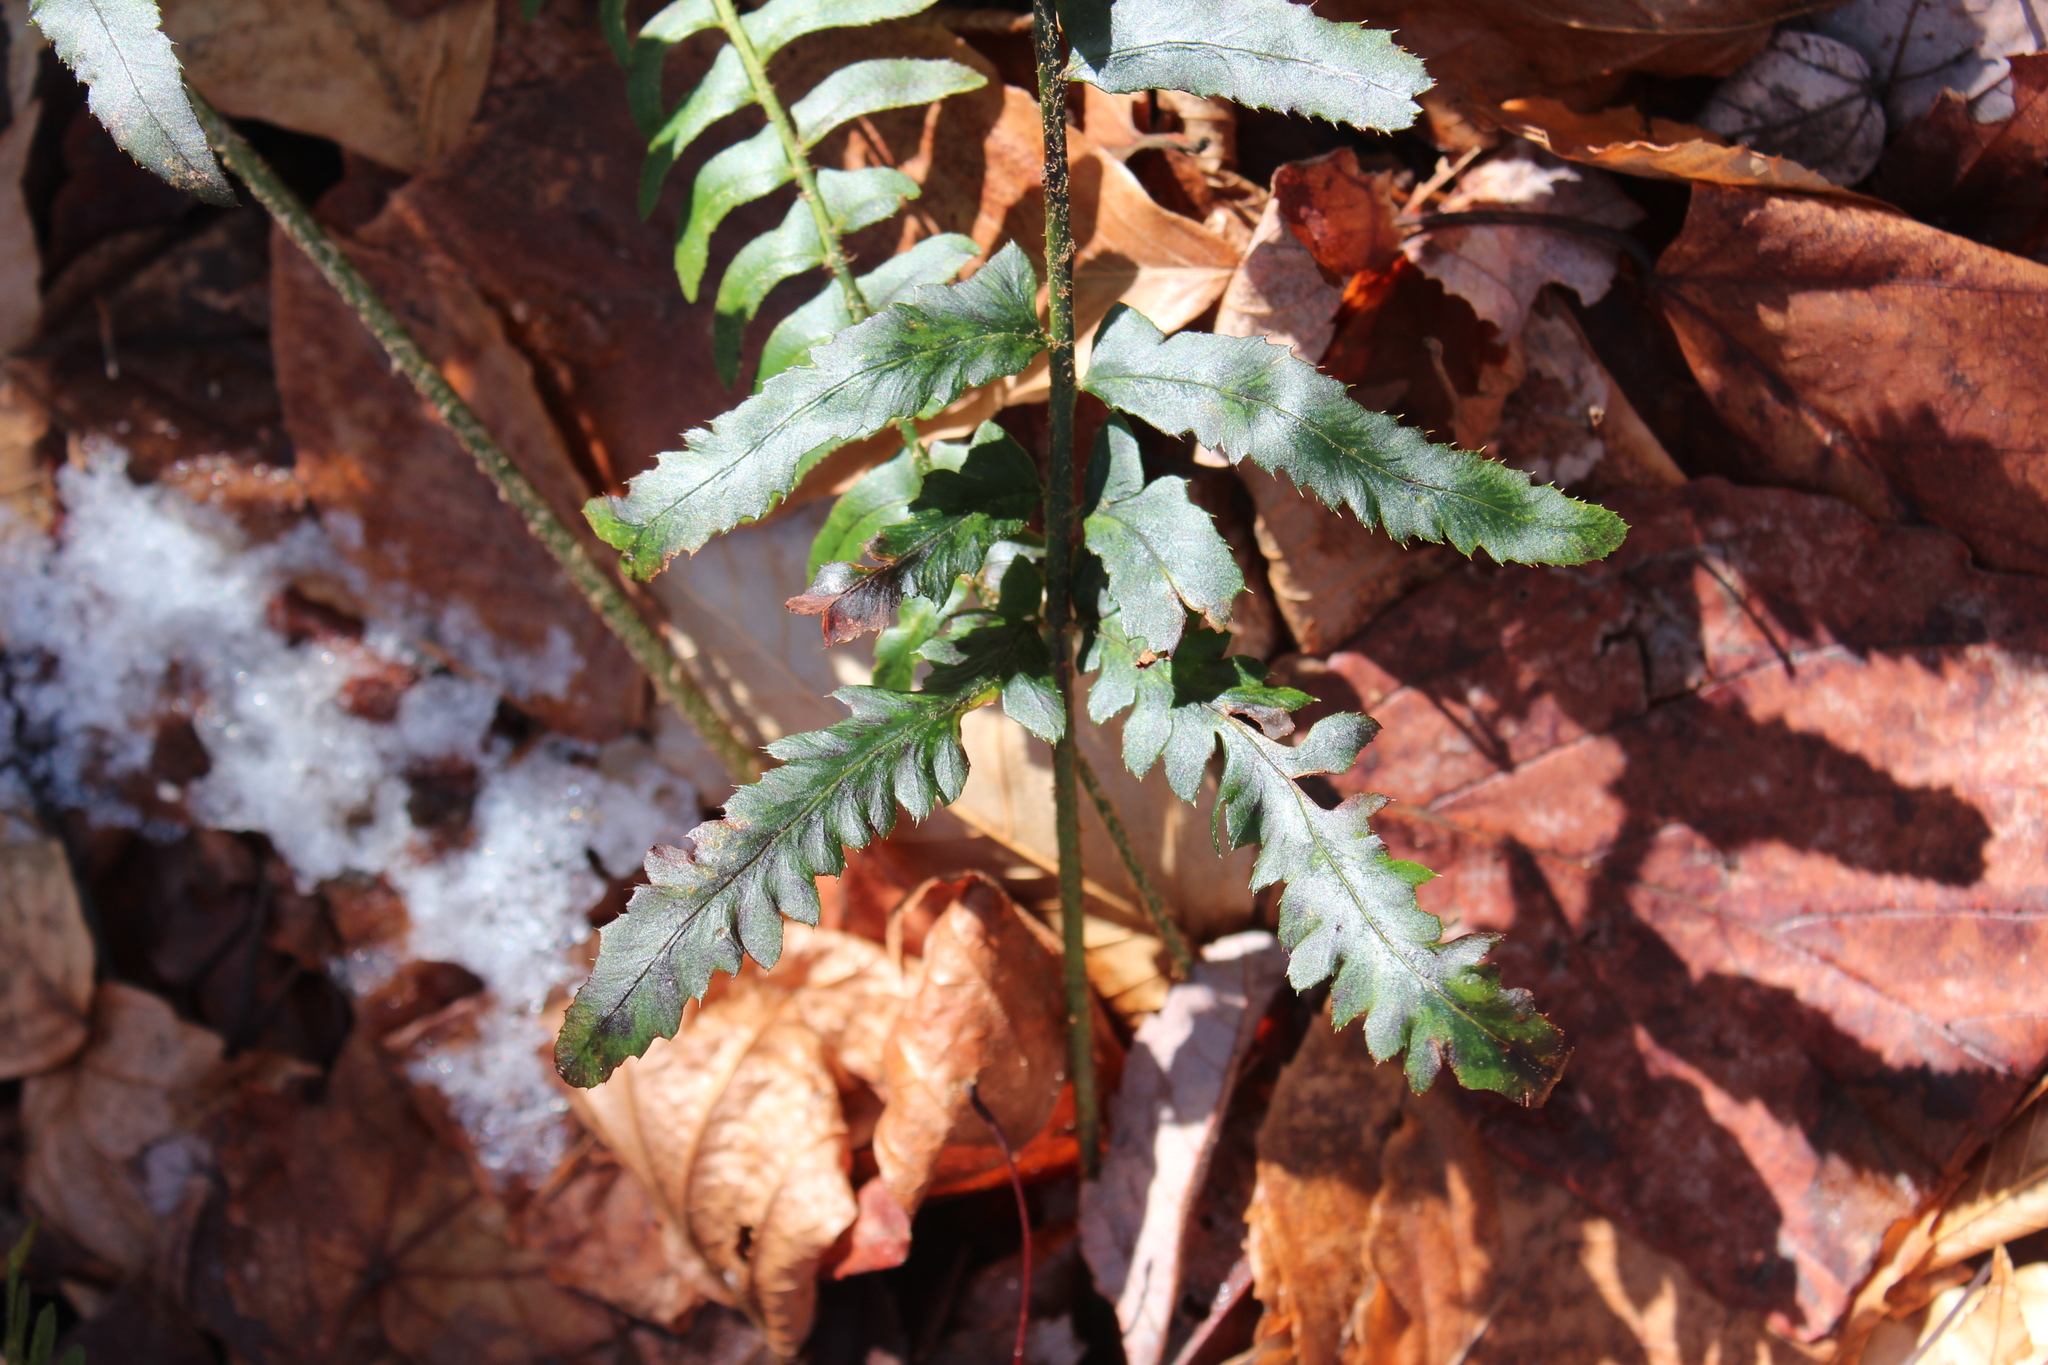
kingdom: Plantae
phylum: Tracheophyta
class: Polypodiopsida
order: Polypodiales
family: Dryopteridaceae
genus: Polystichum
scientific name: Polystichum acrostichoides
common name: Christmas fern
